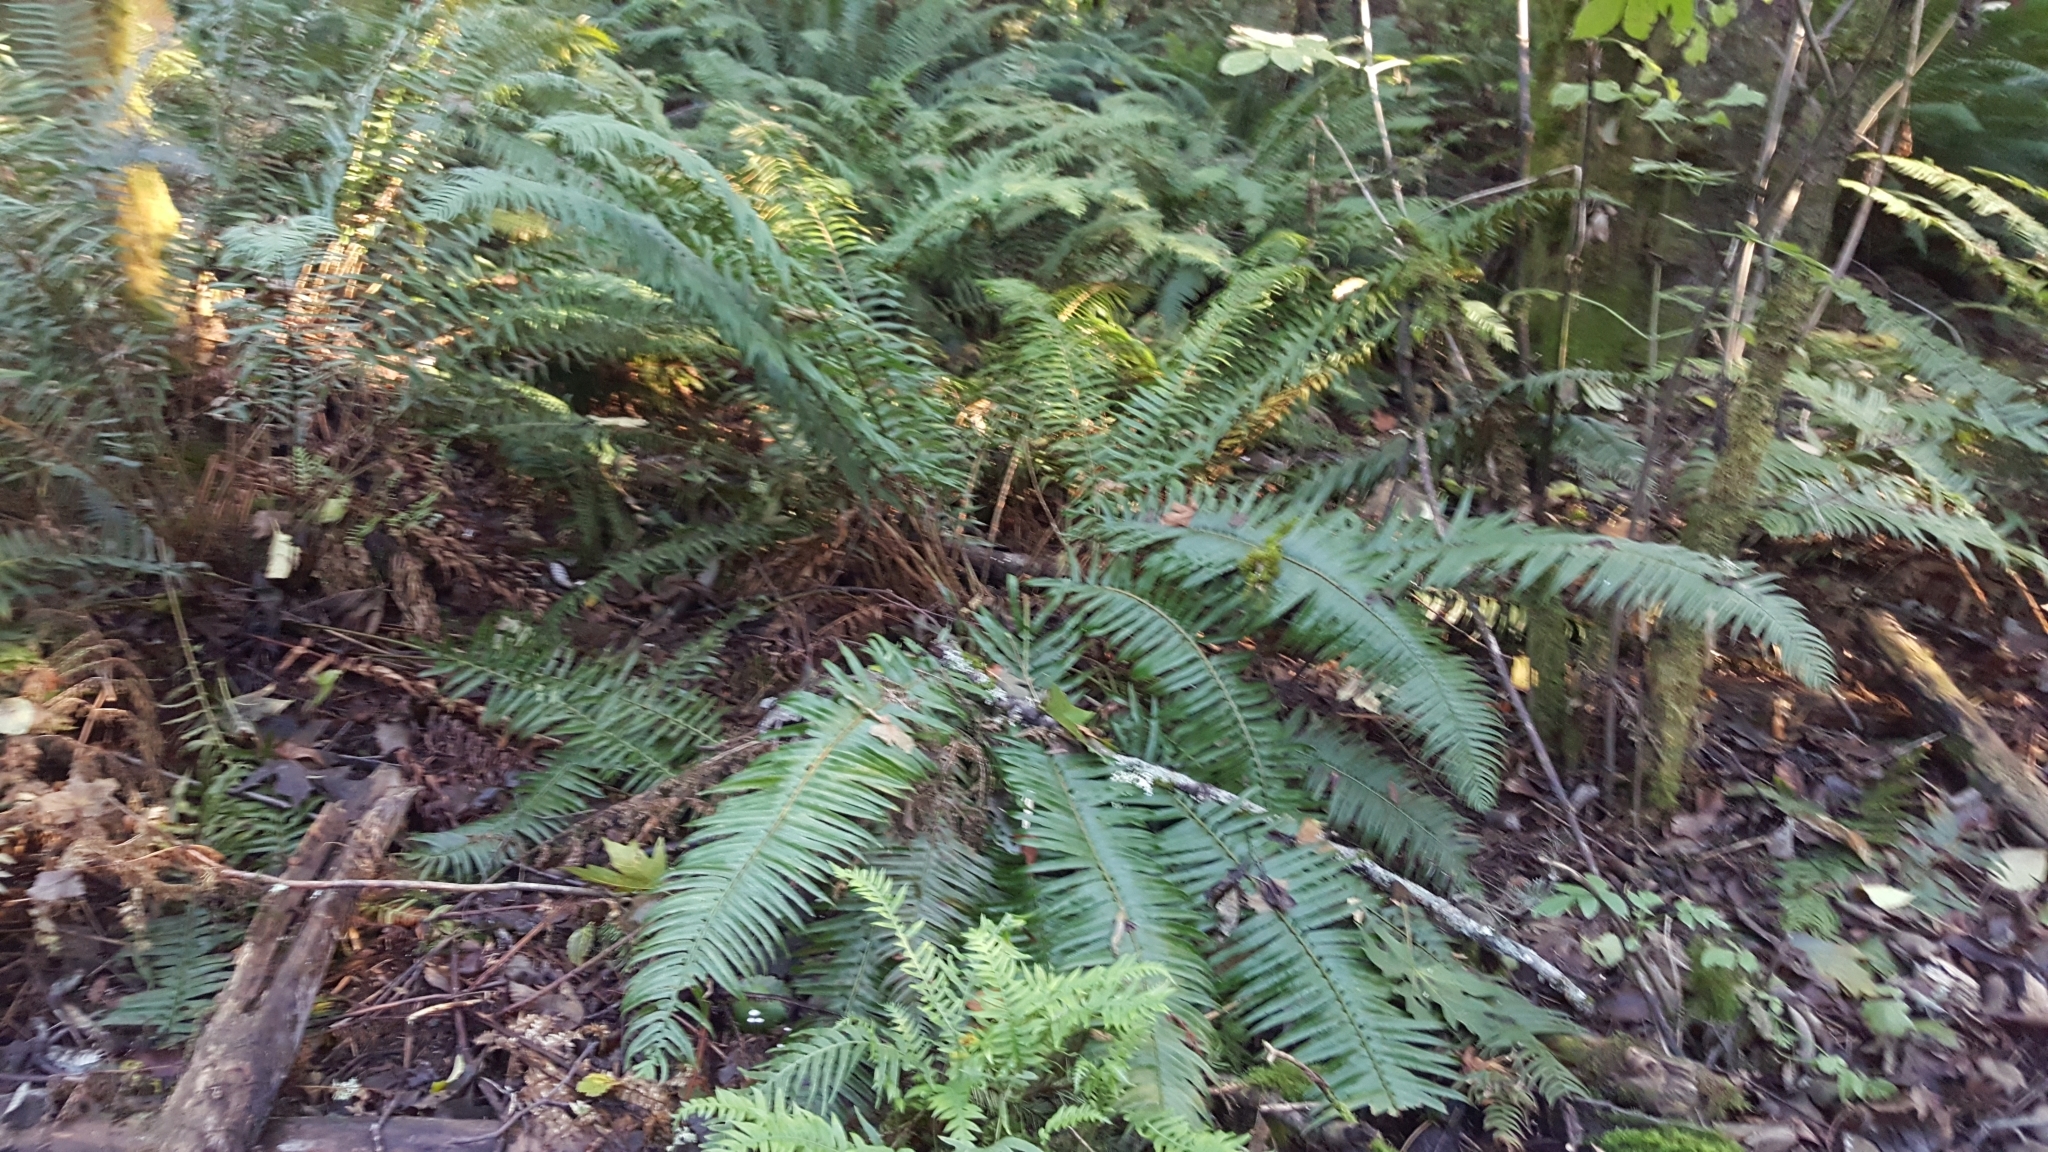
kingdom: Plantae
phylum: Tracheophyta
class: Polypodiopsida
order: Polypodiales
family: Dryopteridaceae
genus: Polystichum
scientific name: Polystichum munitum
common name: Western sword-fern
